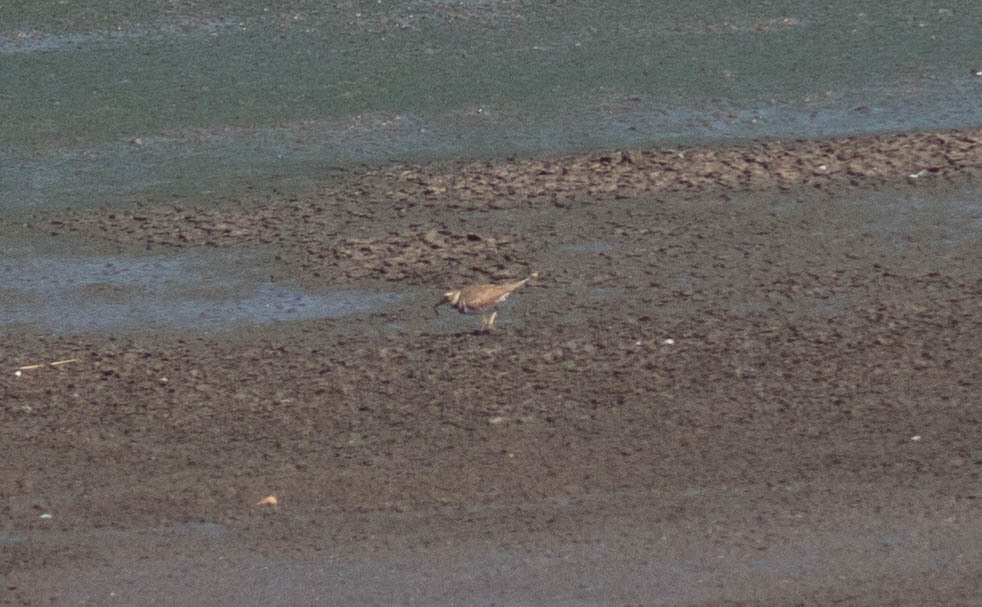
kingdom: Animalia
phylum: Chordata
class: Aves
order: Charadriiformes
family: Charadriidae
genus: Charadrius
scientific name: Charadrius vociferus
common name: Killdeer
